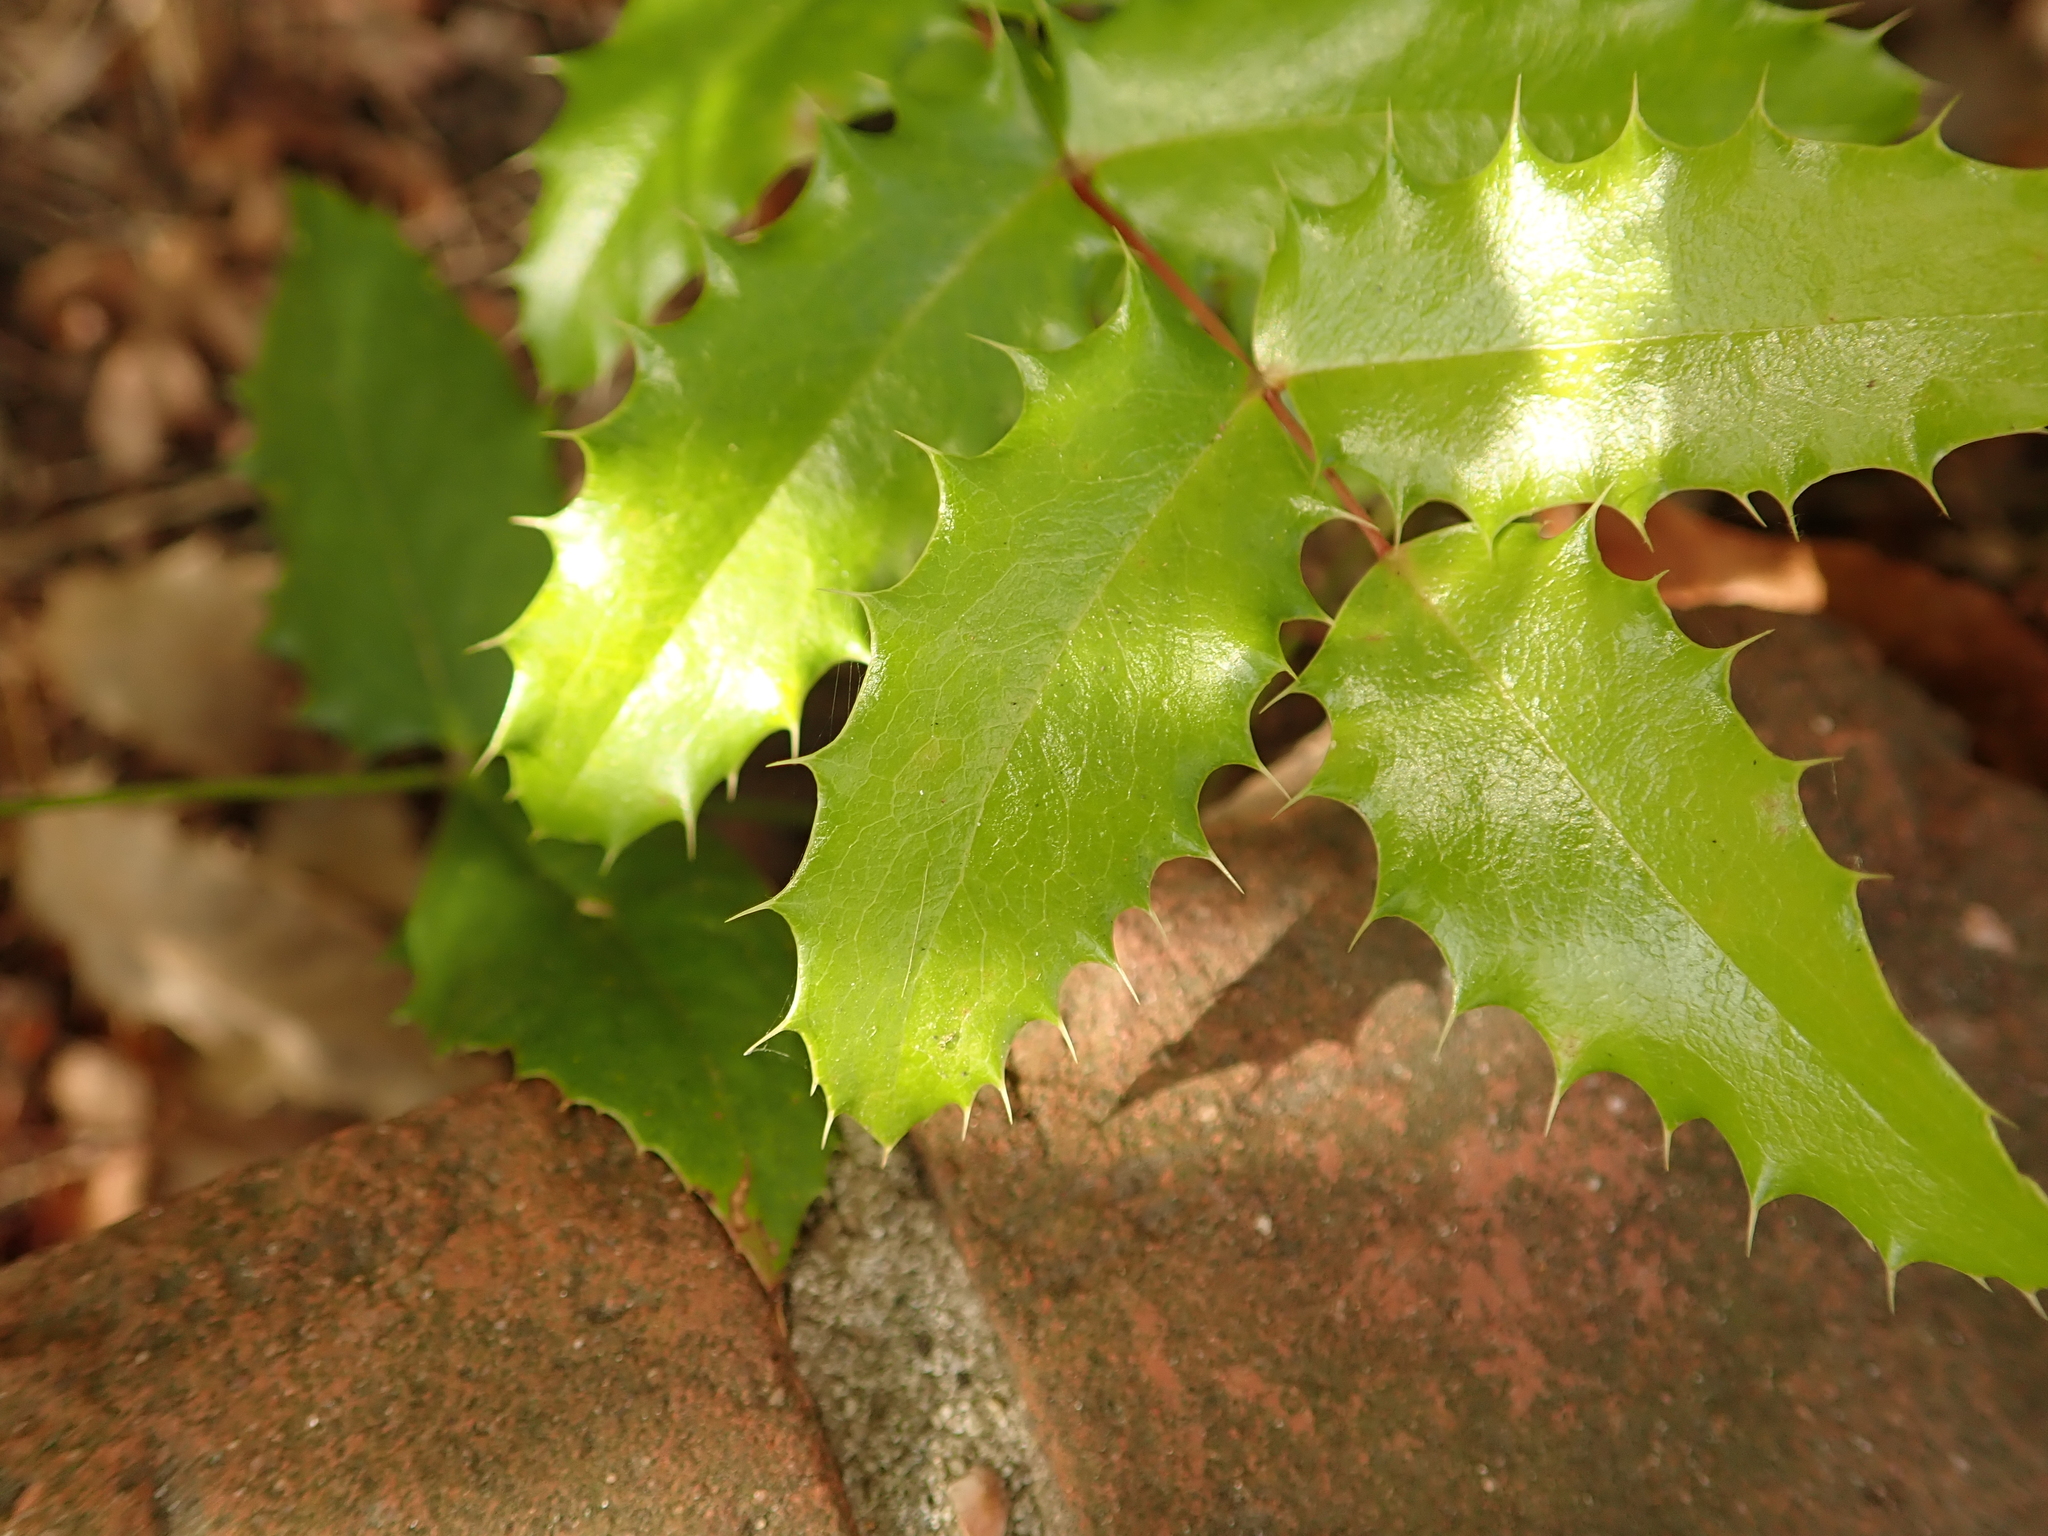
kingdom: Plantae
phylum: Tracheophyta
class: Magnoliopsida
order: Ranunculales
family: Berberidaceae
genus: Mahonia
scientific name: Mahonia aquifolium
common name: Oregon-grape
